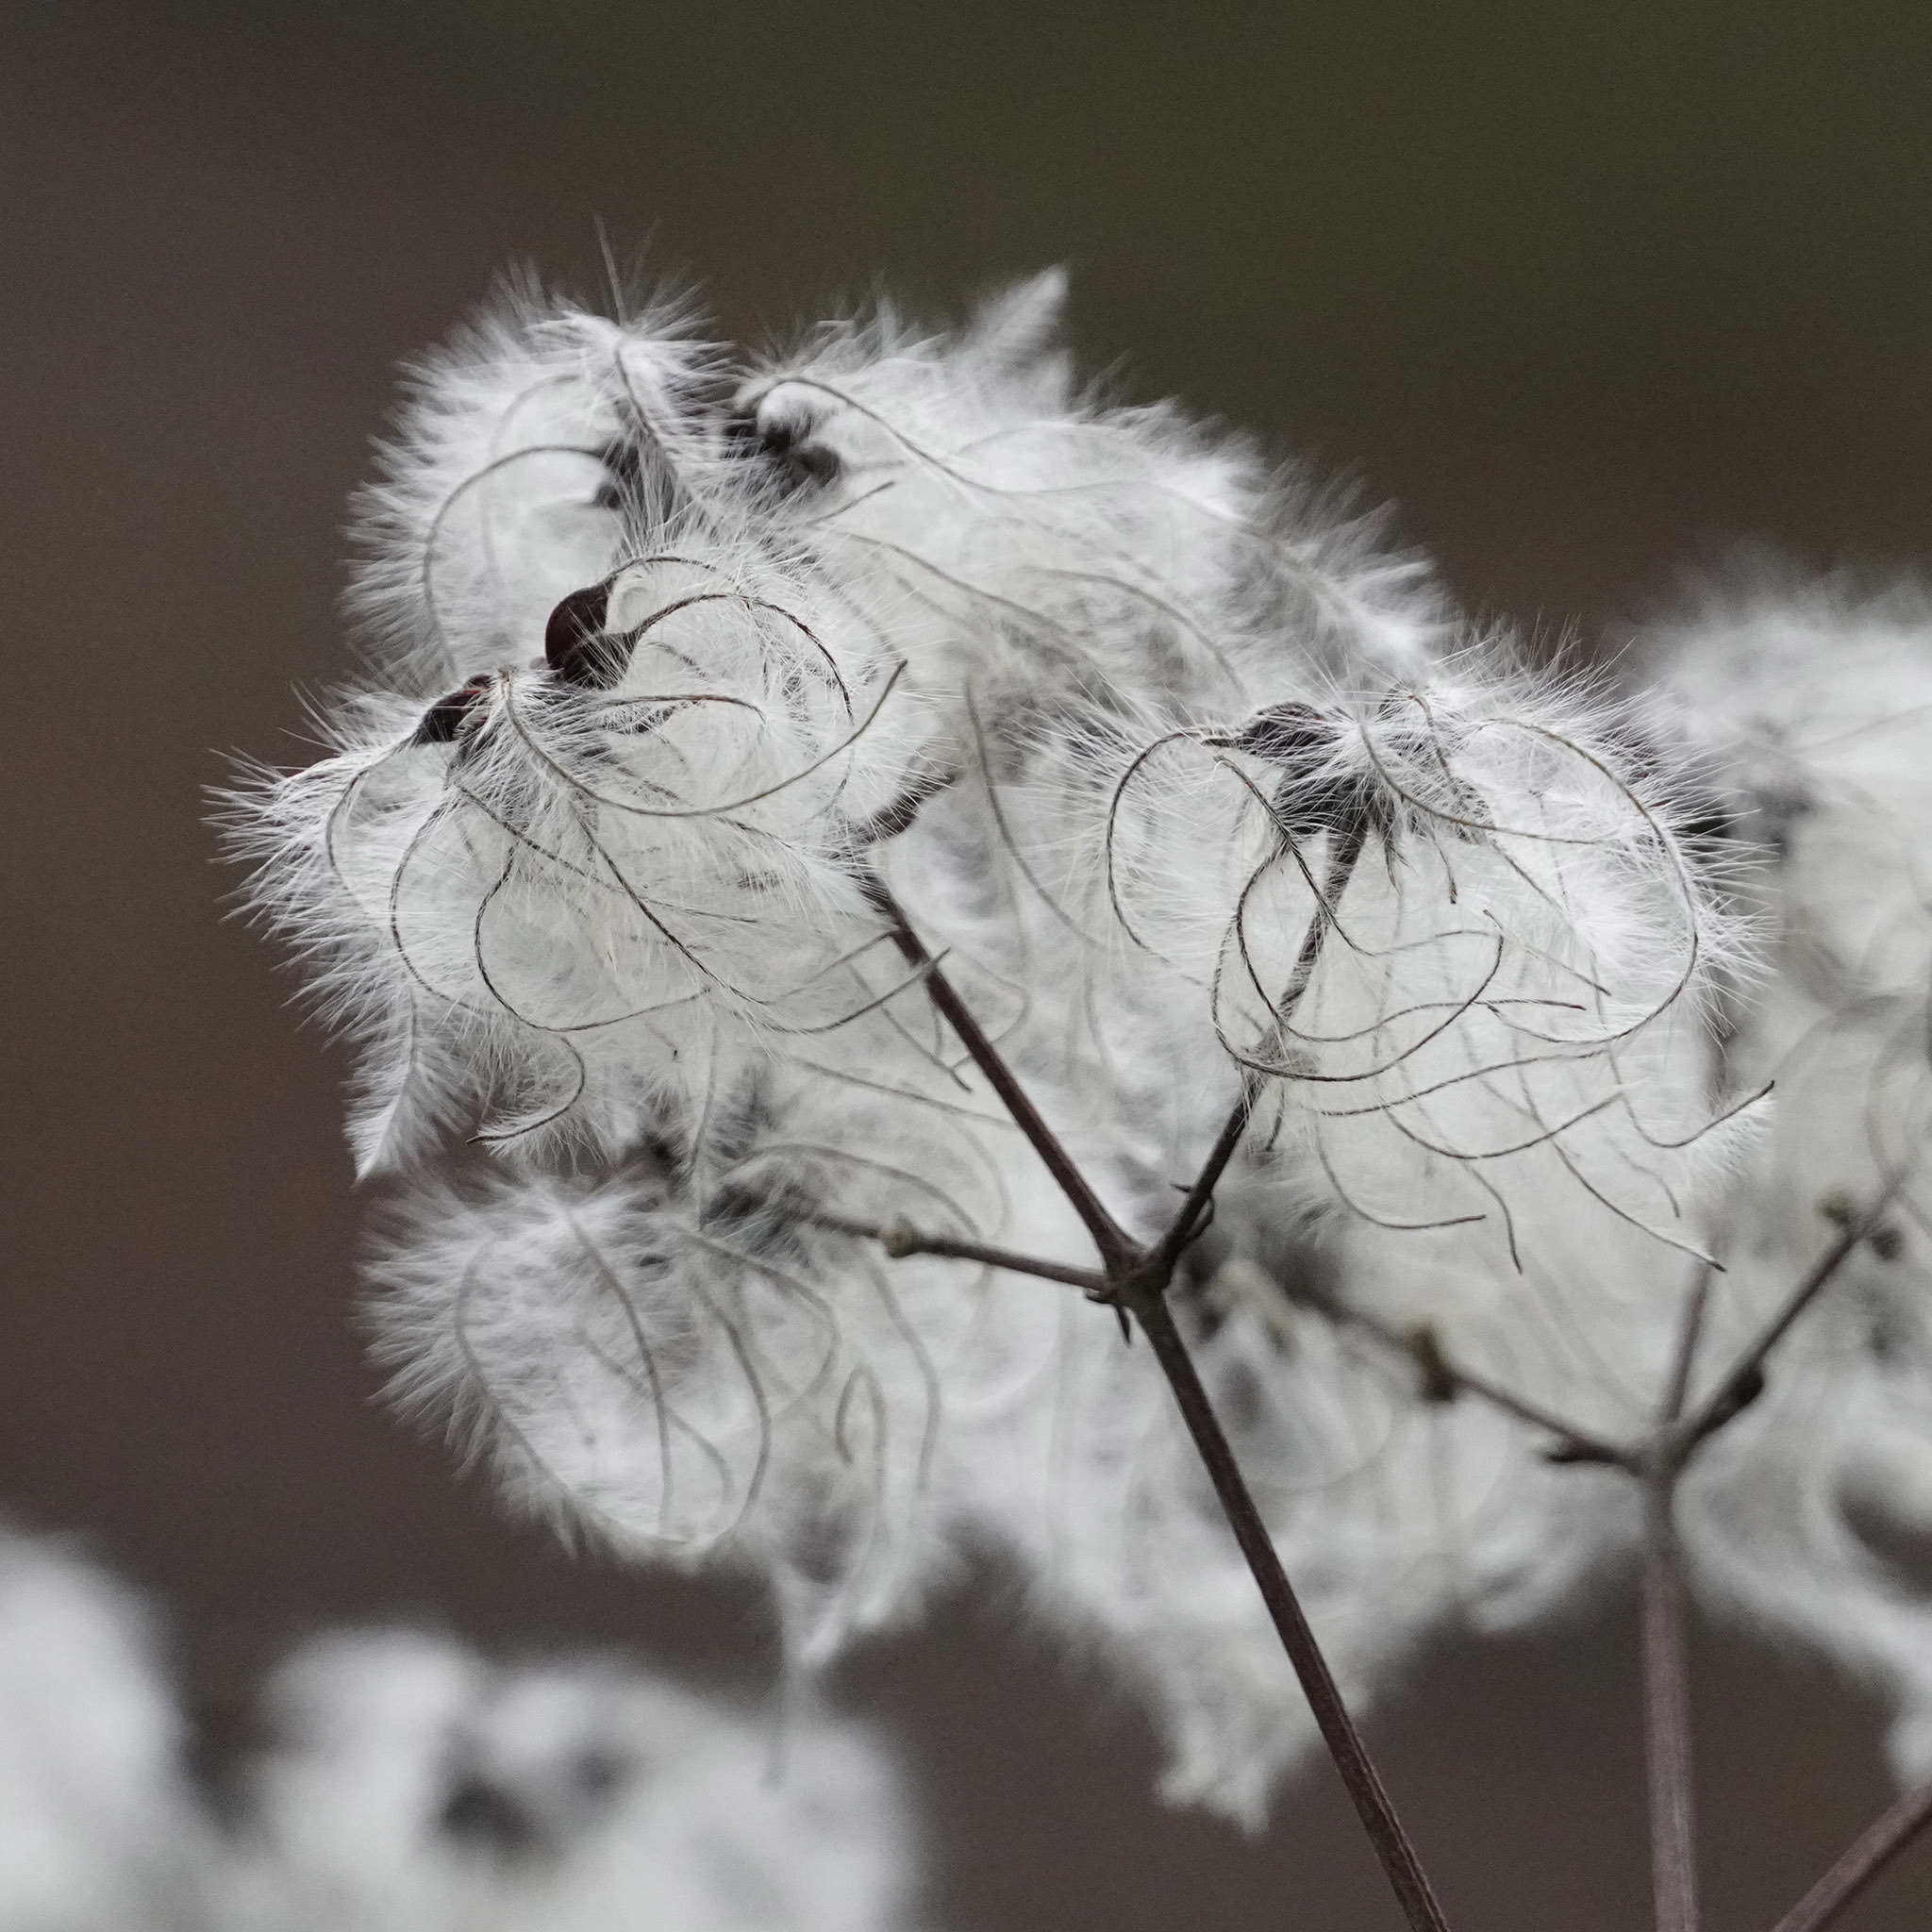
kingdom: Plantae
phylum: Tracheophyta
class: Magnoliopsida
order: Ranunculales
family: Ranunculaceae
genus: Clematis
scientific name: Clematis vitalba
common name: Evergreen clematis
